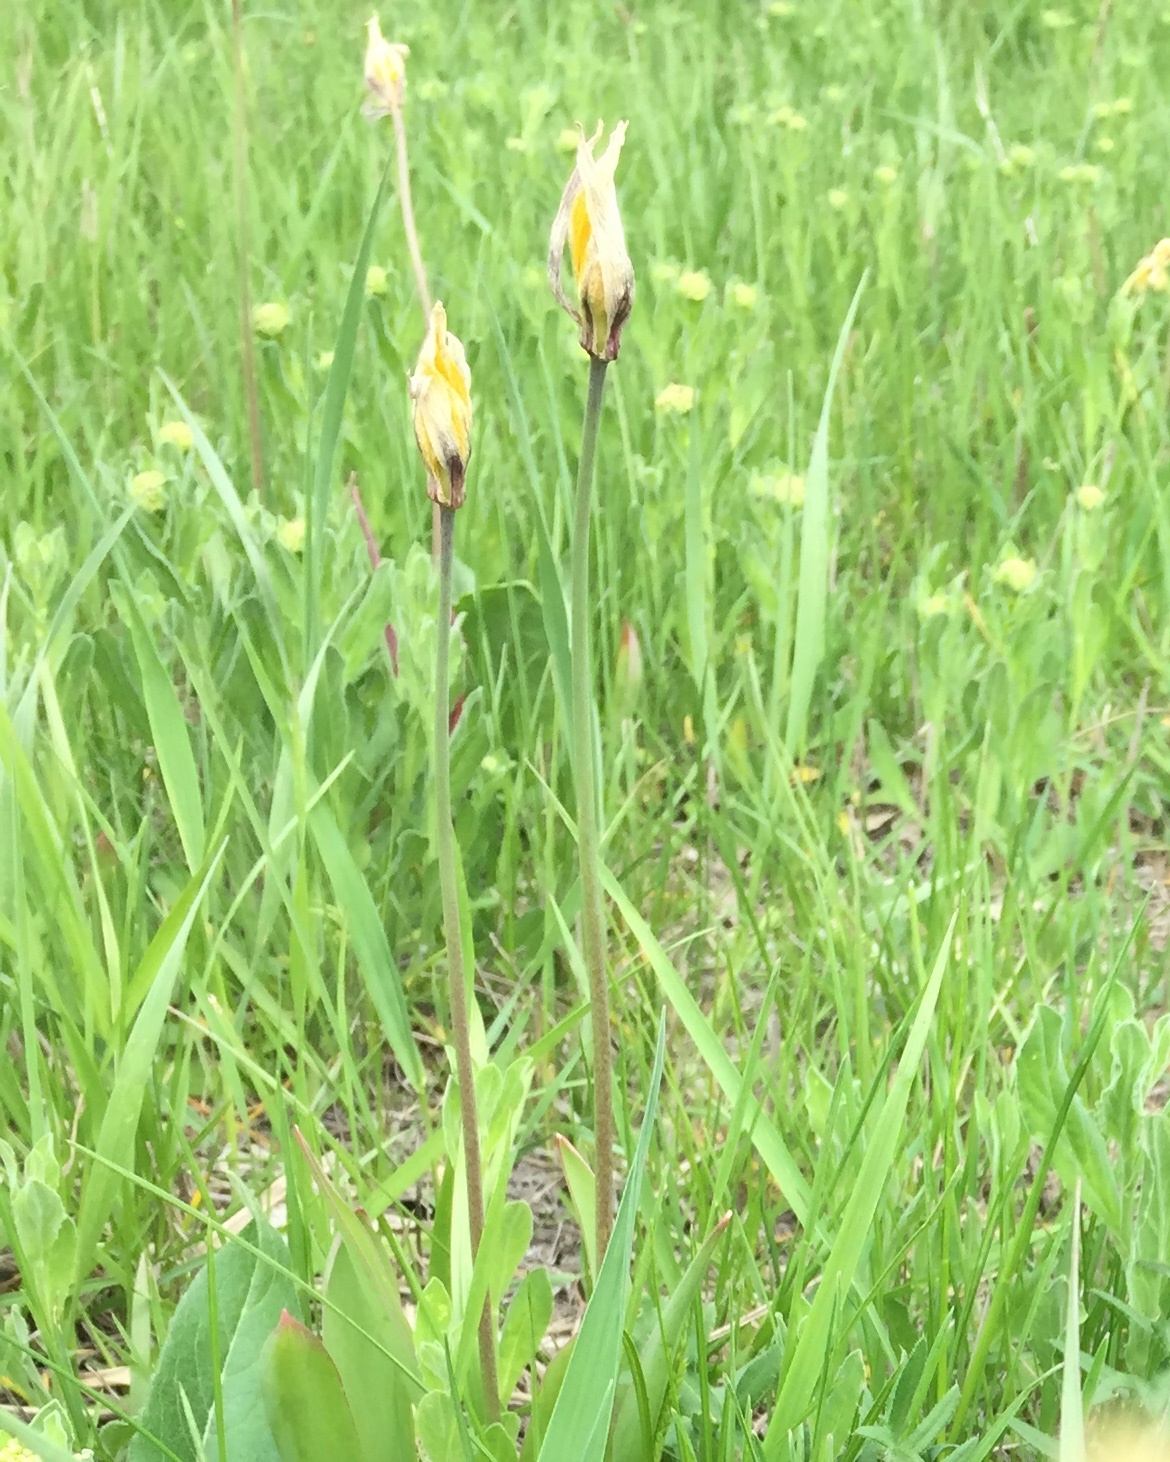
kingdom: Plantae
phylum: Tracheophyta
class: Liliopsida
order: Liliales
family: Liliaceae
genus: Tulipa
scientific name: Tulipa sylvestris
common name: Wild tulip
